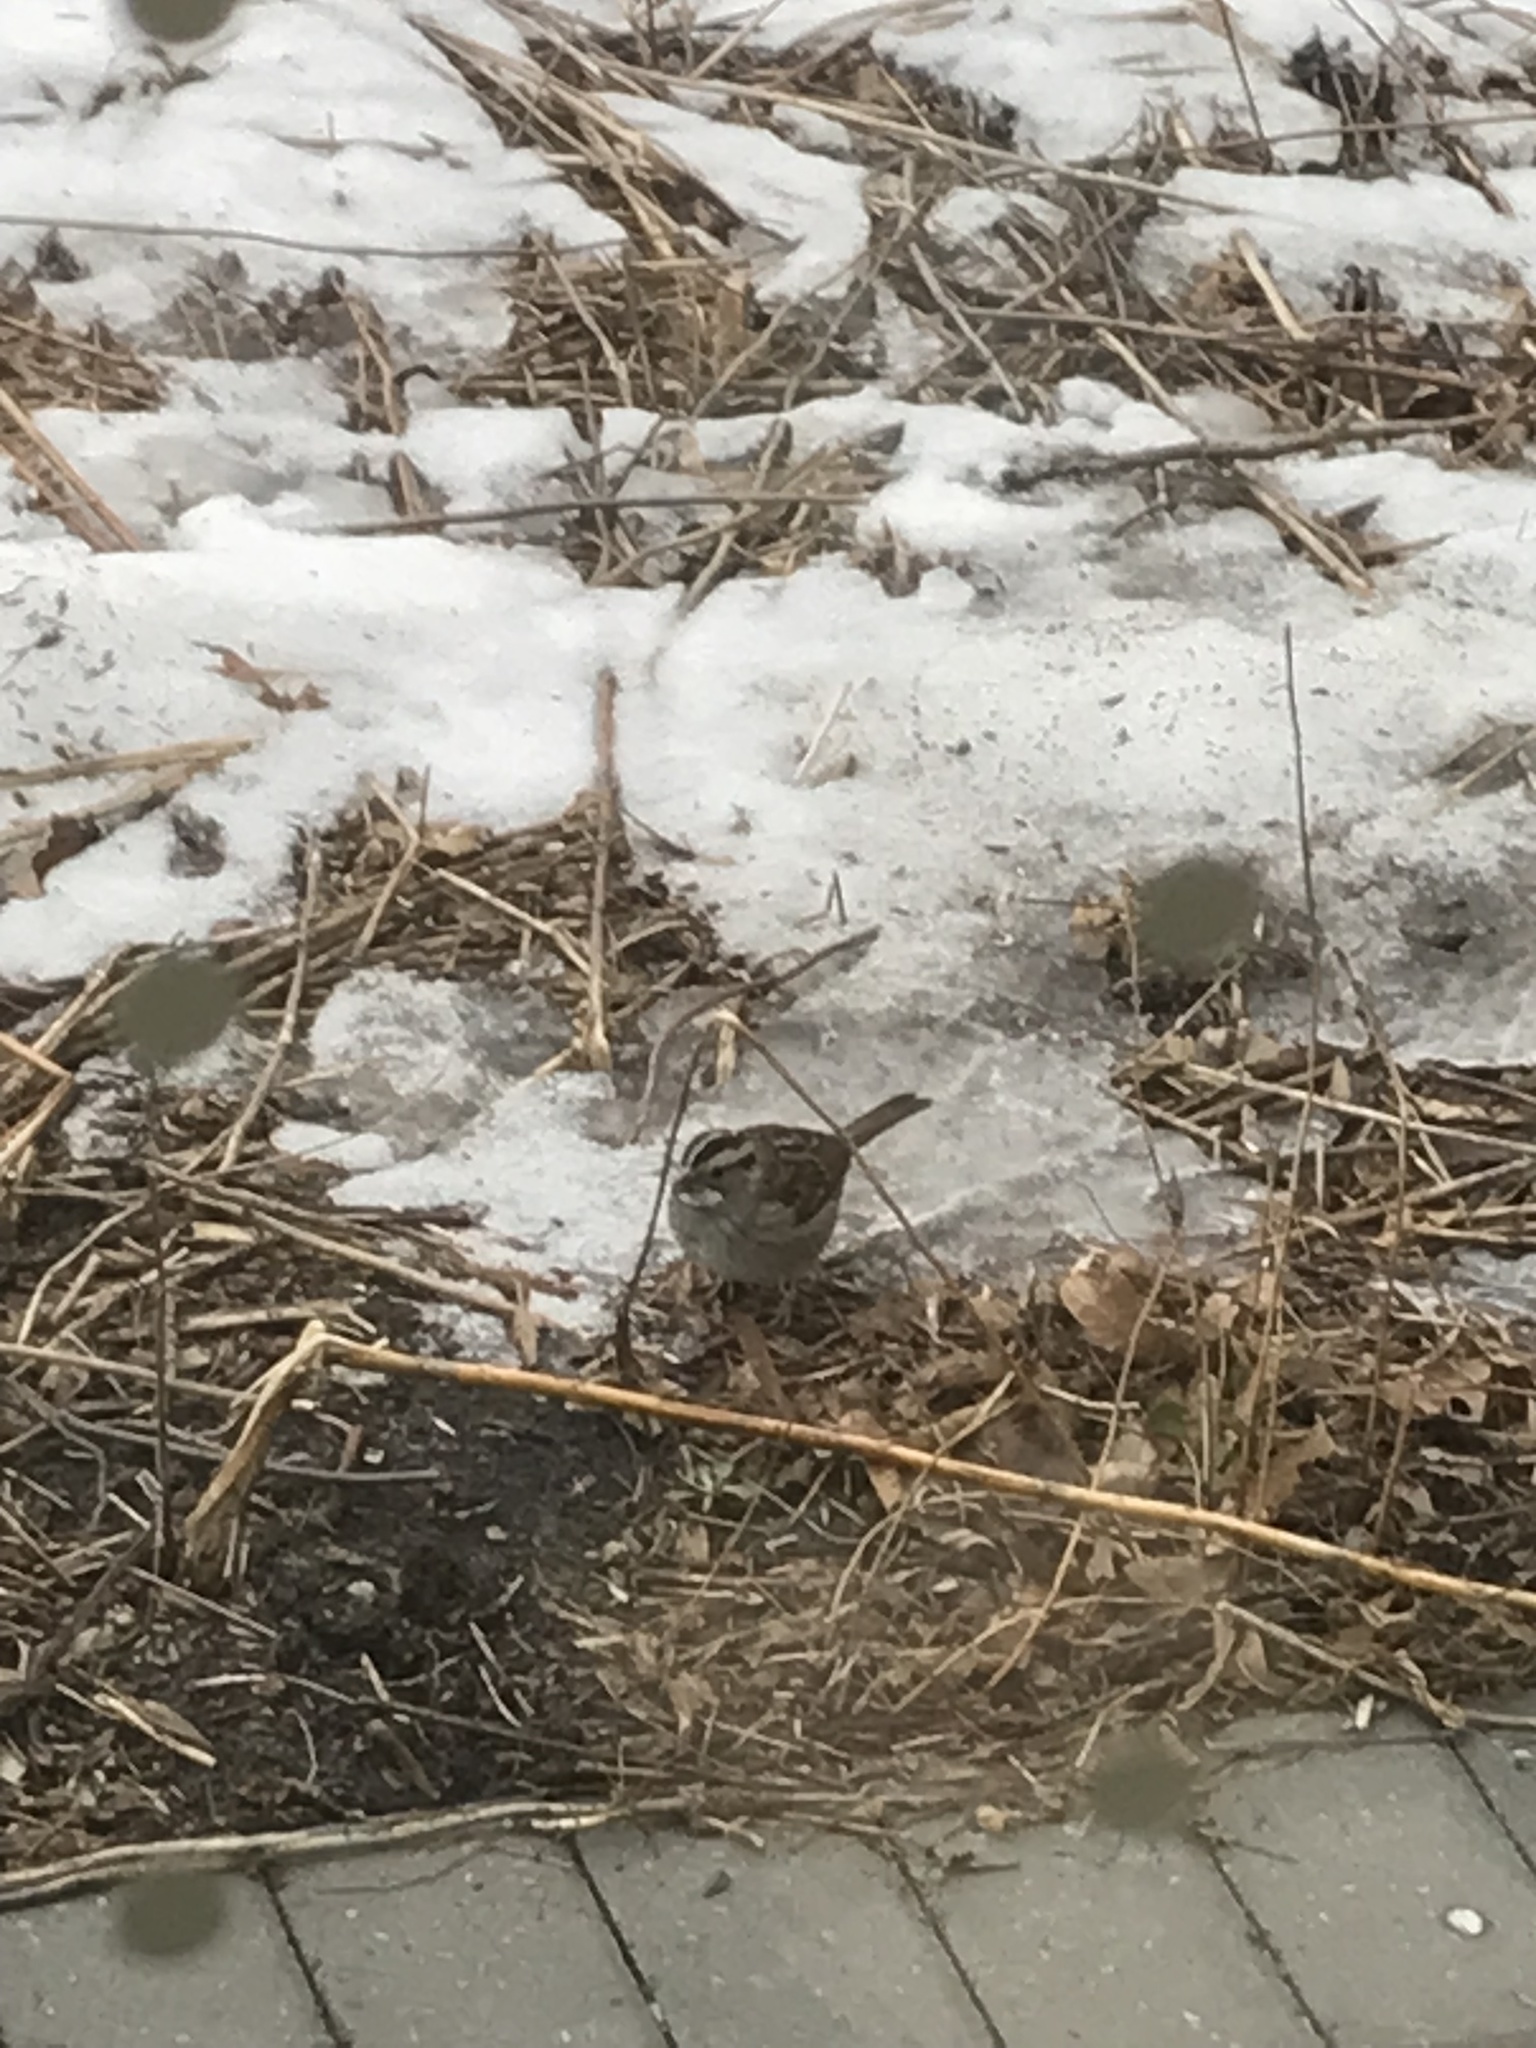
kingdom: Animalia
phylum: Chordata
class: Aves
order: Passeriformes
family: Passerellidae
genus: Zonotrichia
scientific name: Zonotrichia albicollis
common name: White-throated sparrow
